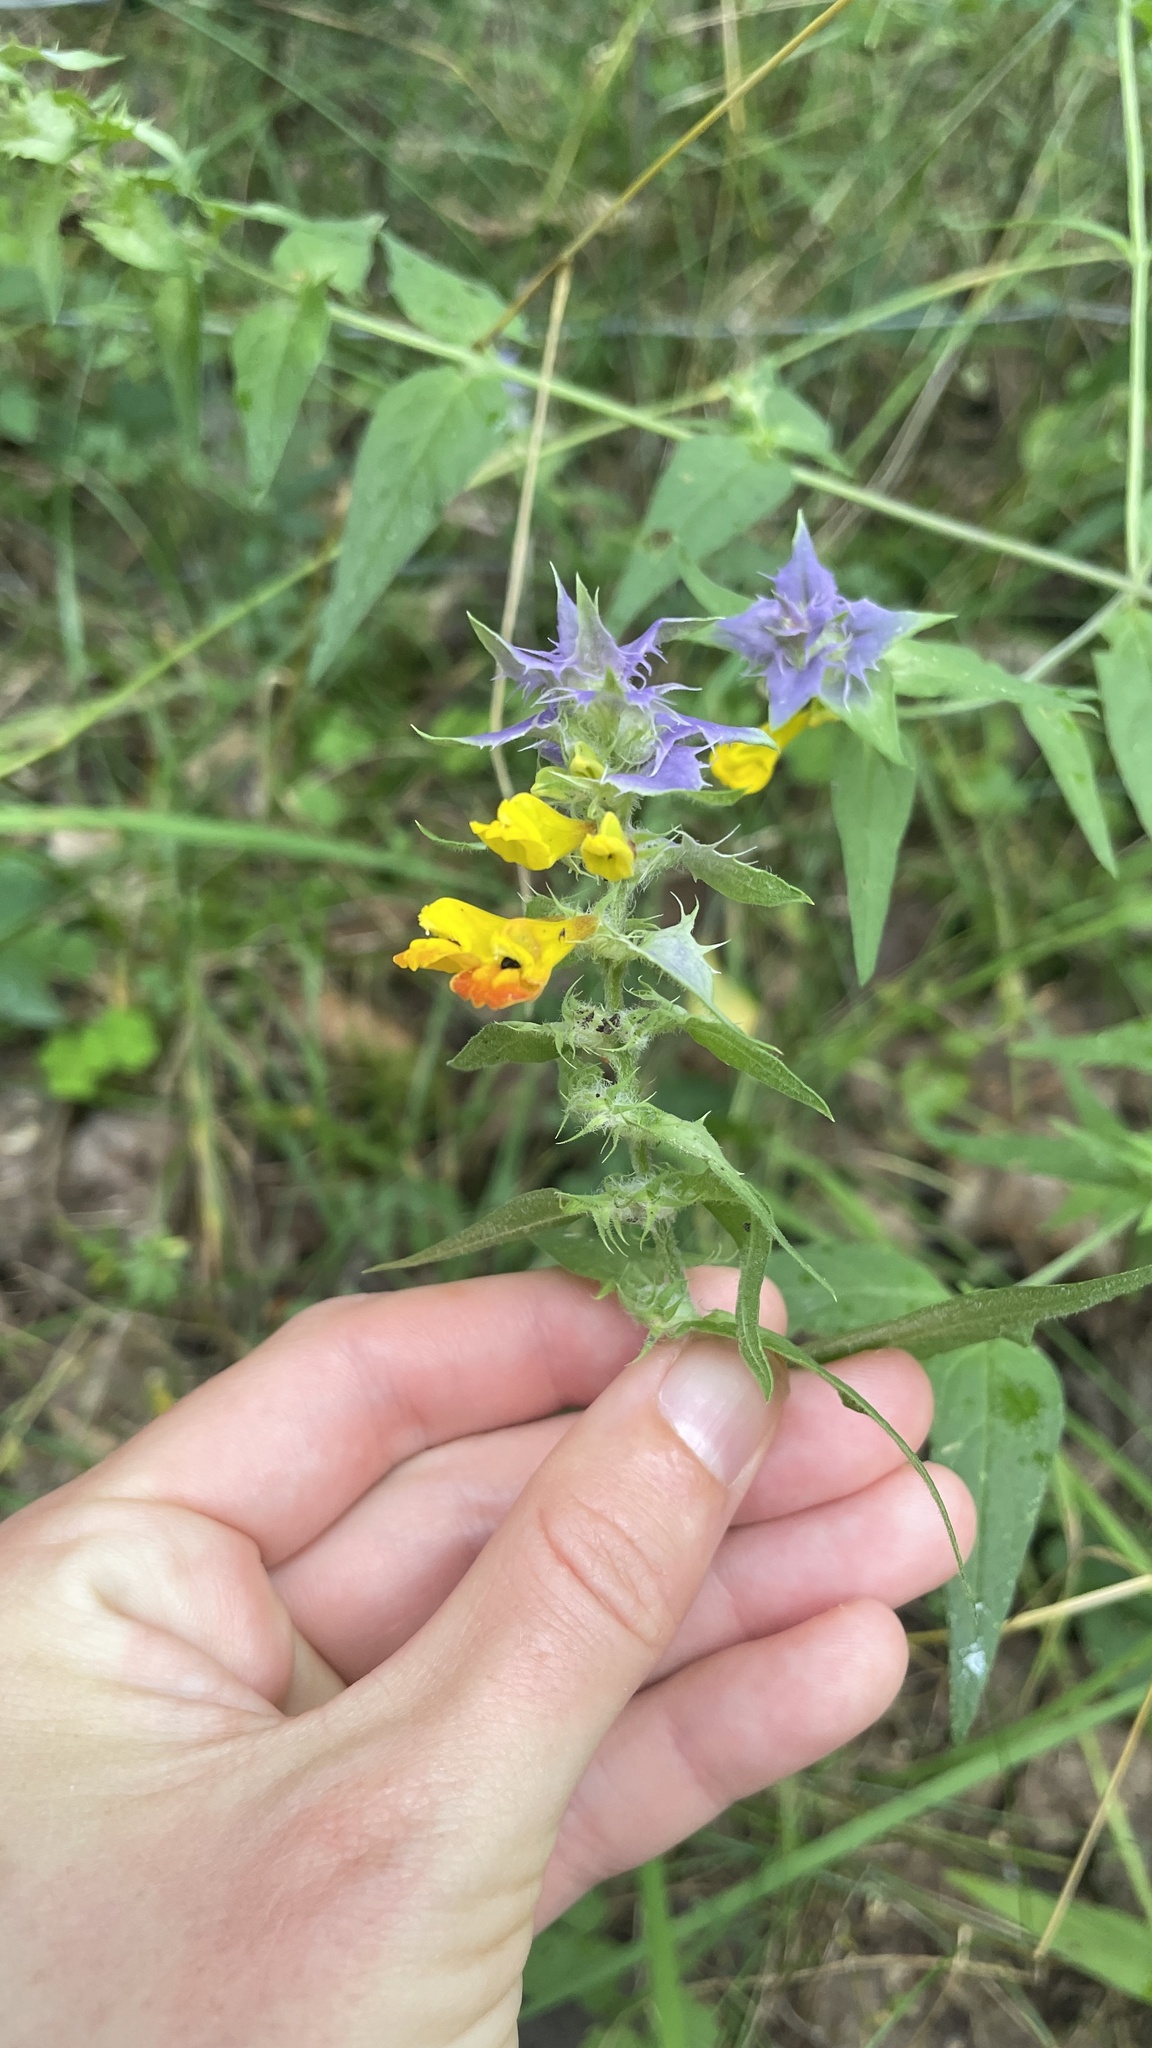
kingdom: Plantae
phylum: Tracheophyta
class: Magnoliopsida
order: Lamiales
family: Orobanchaceae
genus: Melampyrum
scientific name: Melampyrum nemorosum
